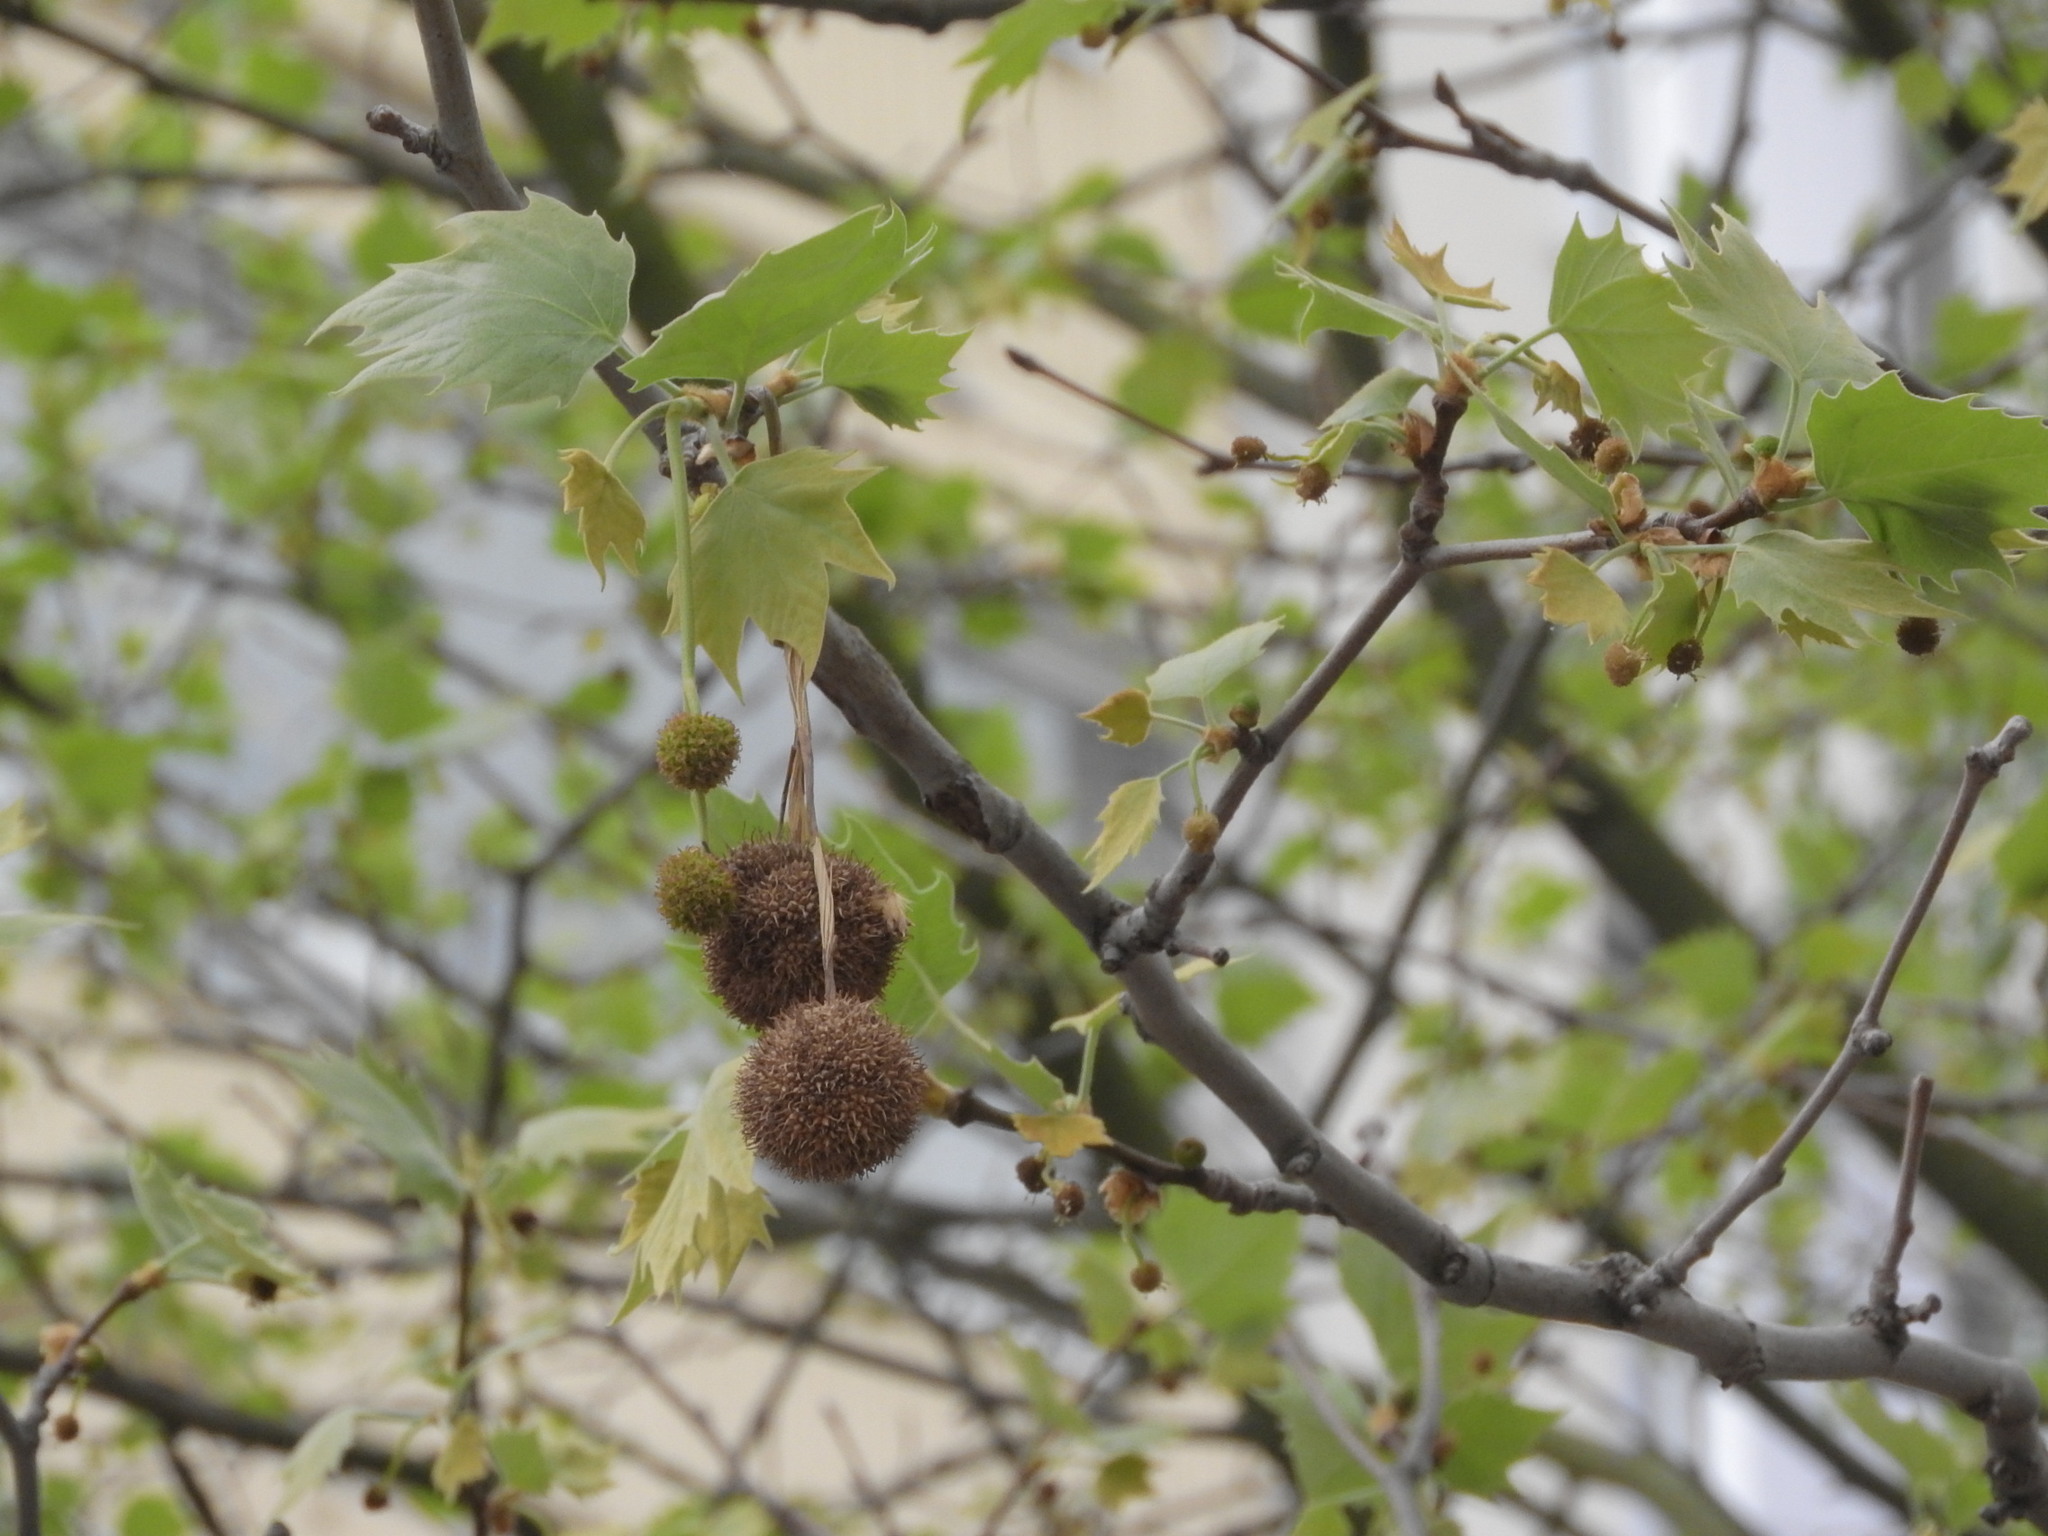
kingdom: Plantae
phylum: Tracheophyta
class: Magnoliopsida
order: Proteales
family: Platanaceae
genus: Platanus
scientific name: Platanus hispanica
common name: London plane
